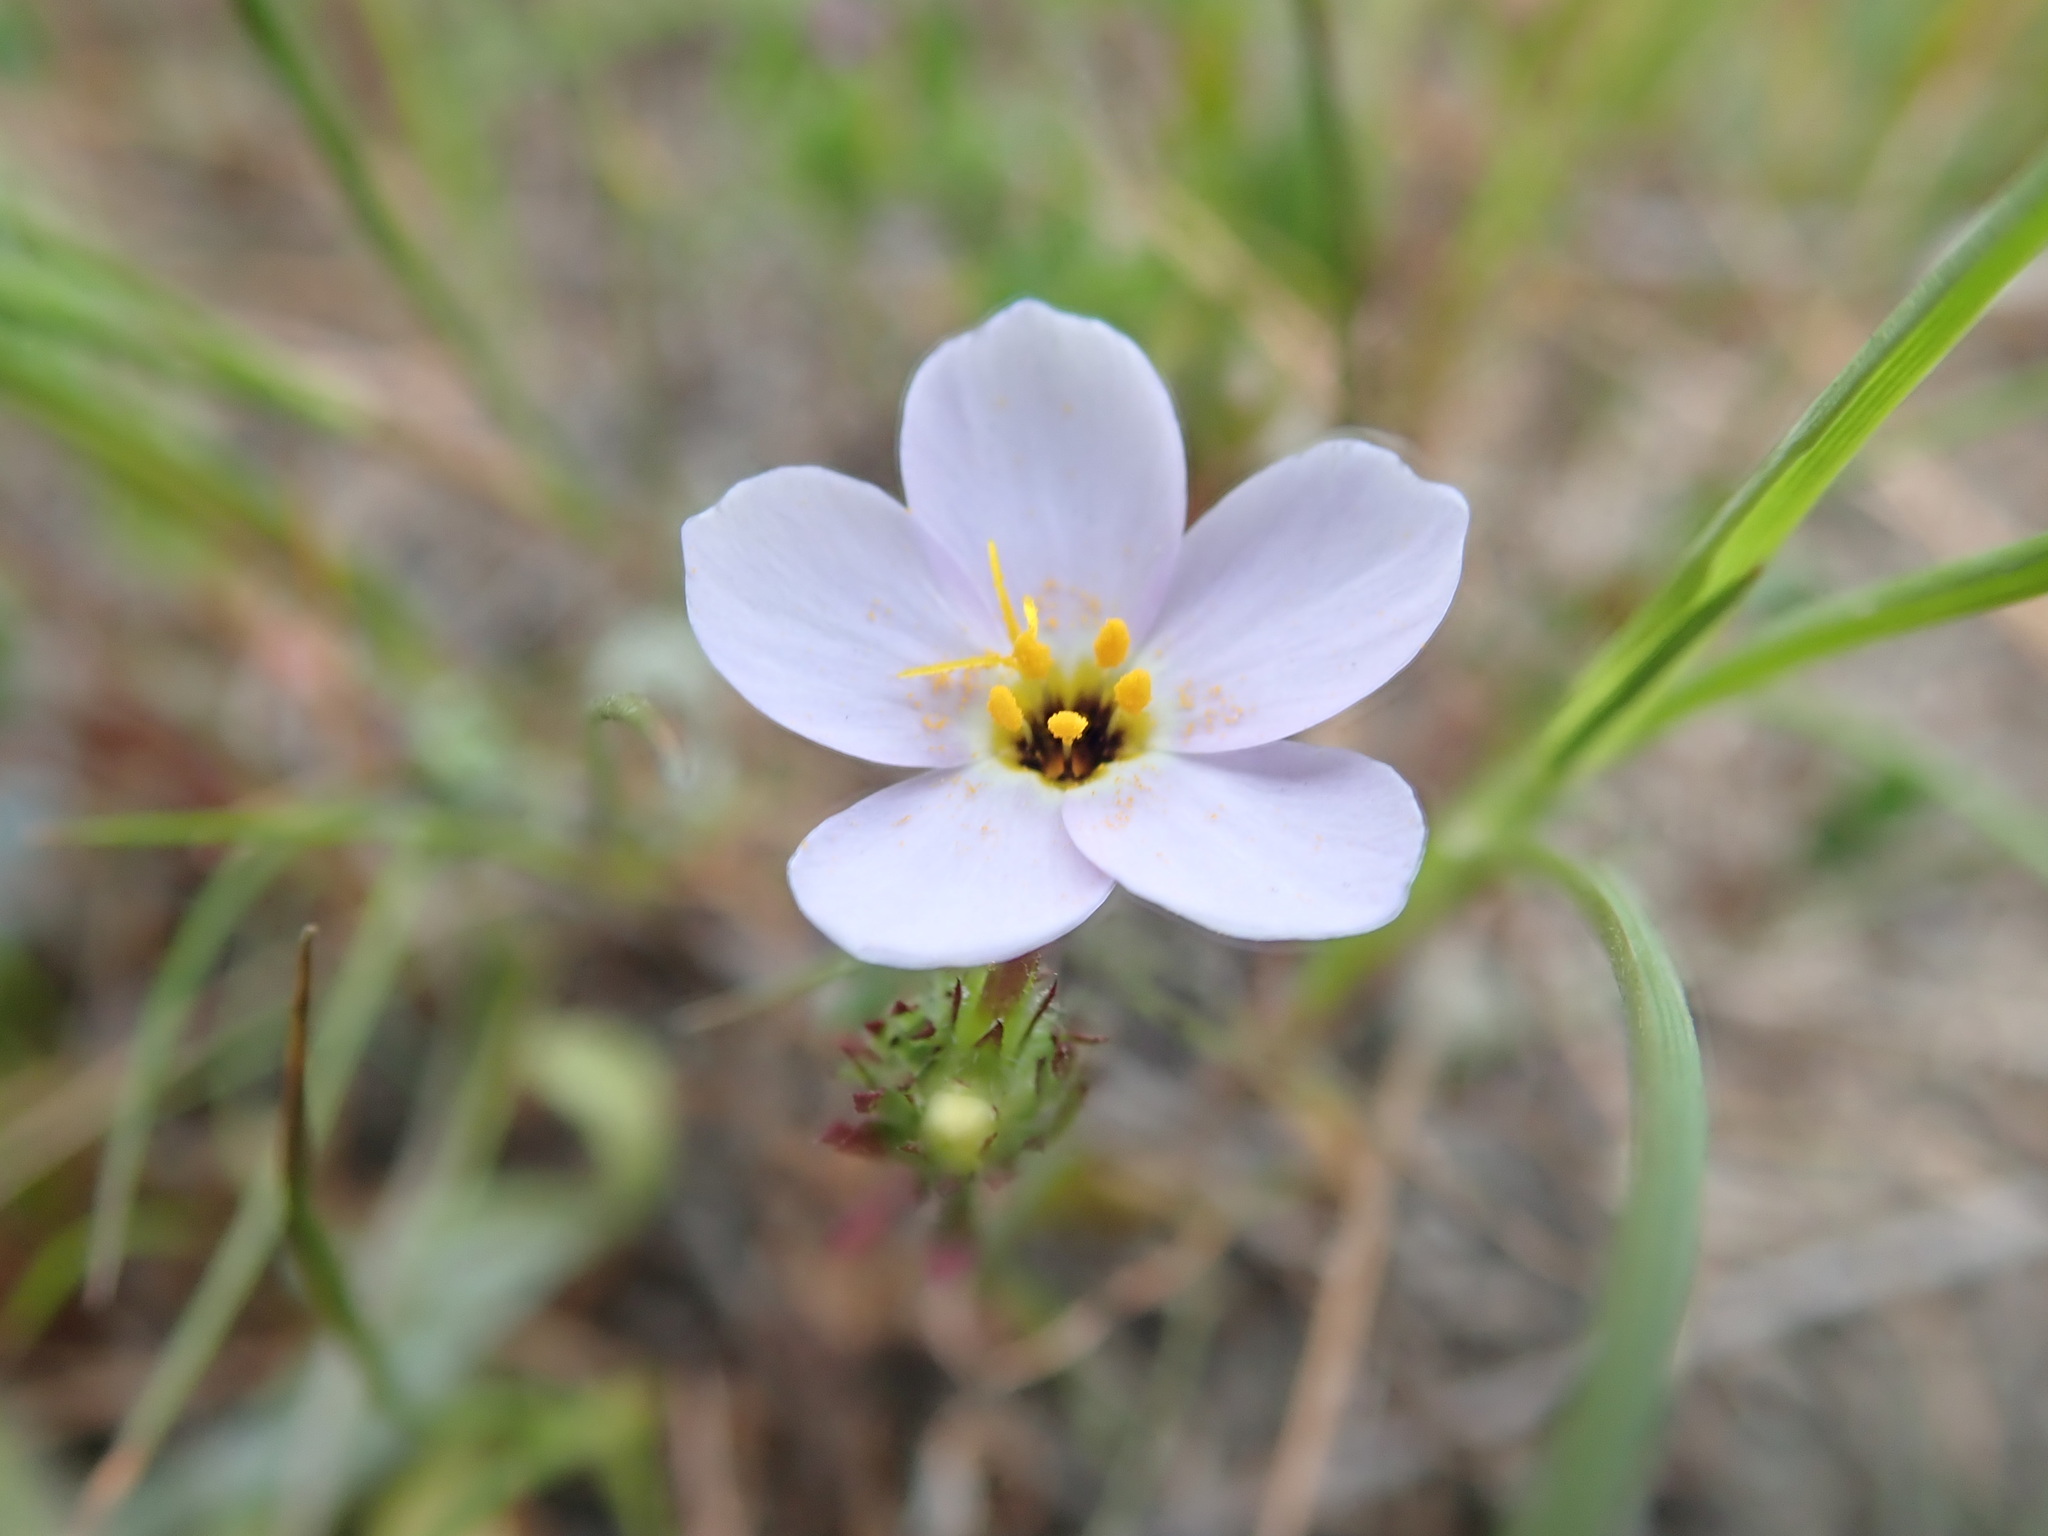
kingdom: Plantae
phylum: Tracheophyta
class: Magnoliopsida
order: Ericales
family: Polemoniaceae
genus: Leptosiphon
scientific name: Leptosiphon androsaceus
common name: False babystars
